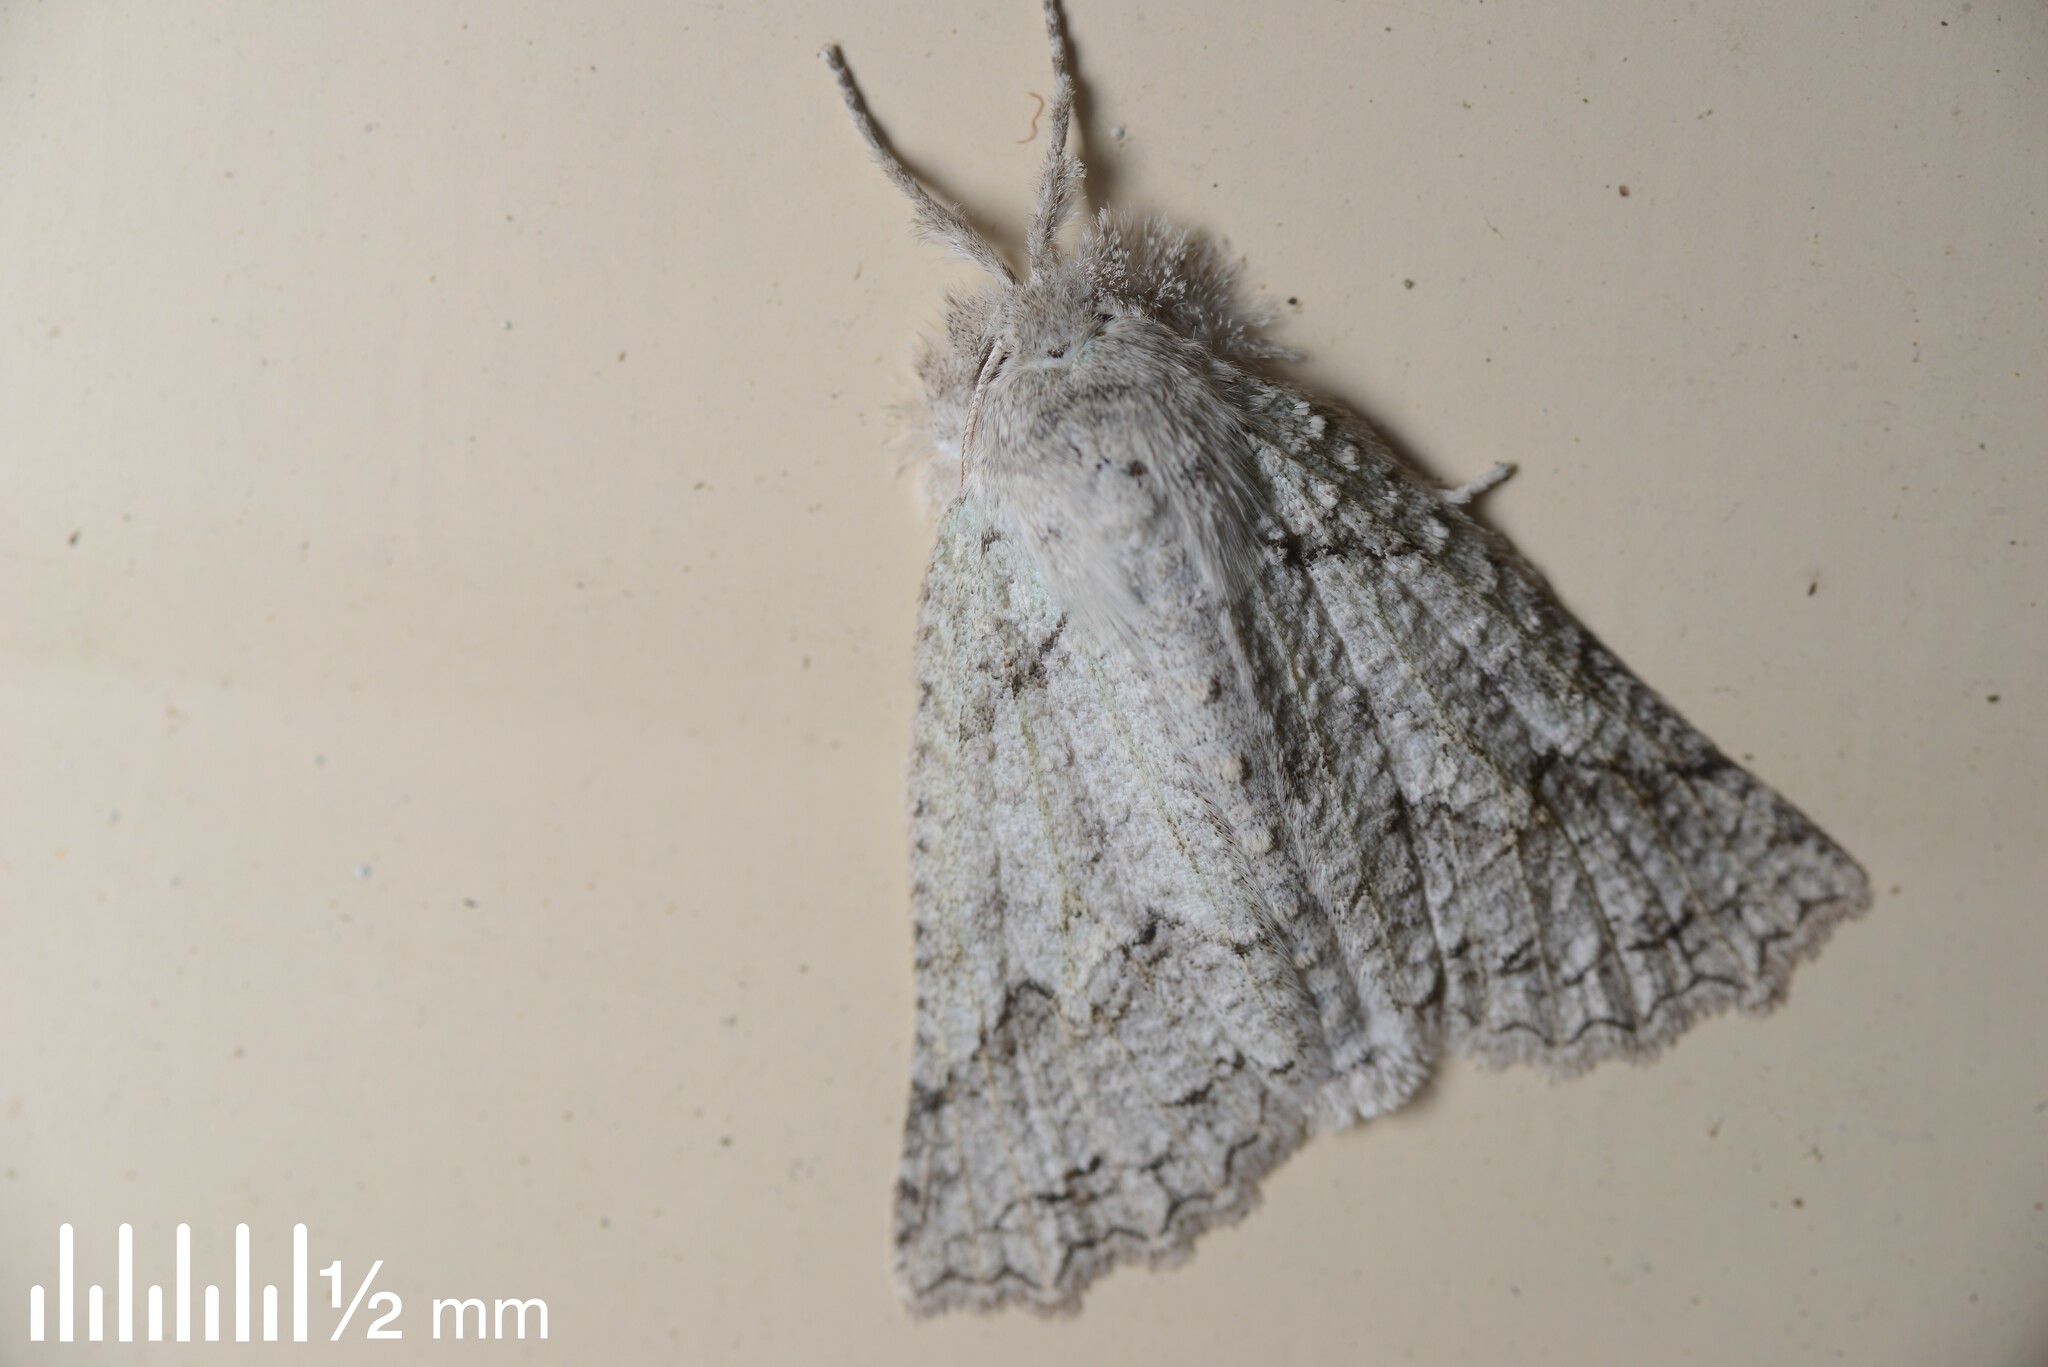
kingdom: Animalia
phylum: Arthropoda
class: Insecta
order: Lepidoptera
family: Geometridae
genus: Declana
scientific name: Declana niveata
